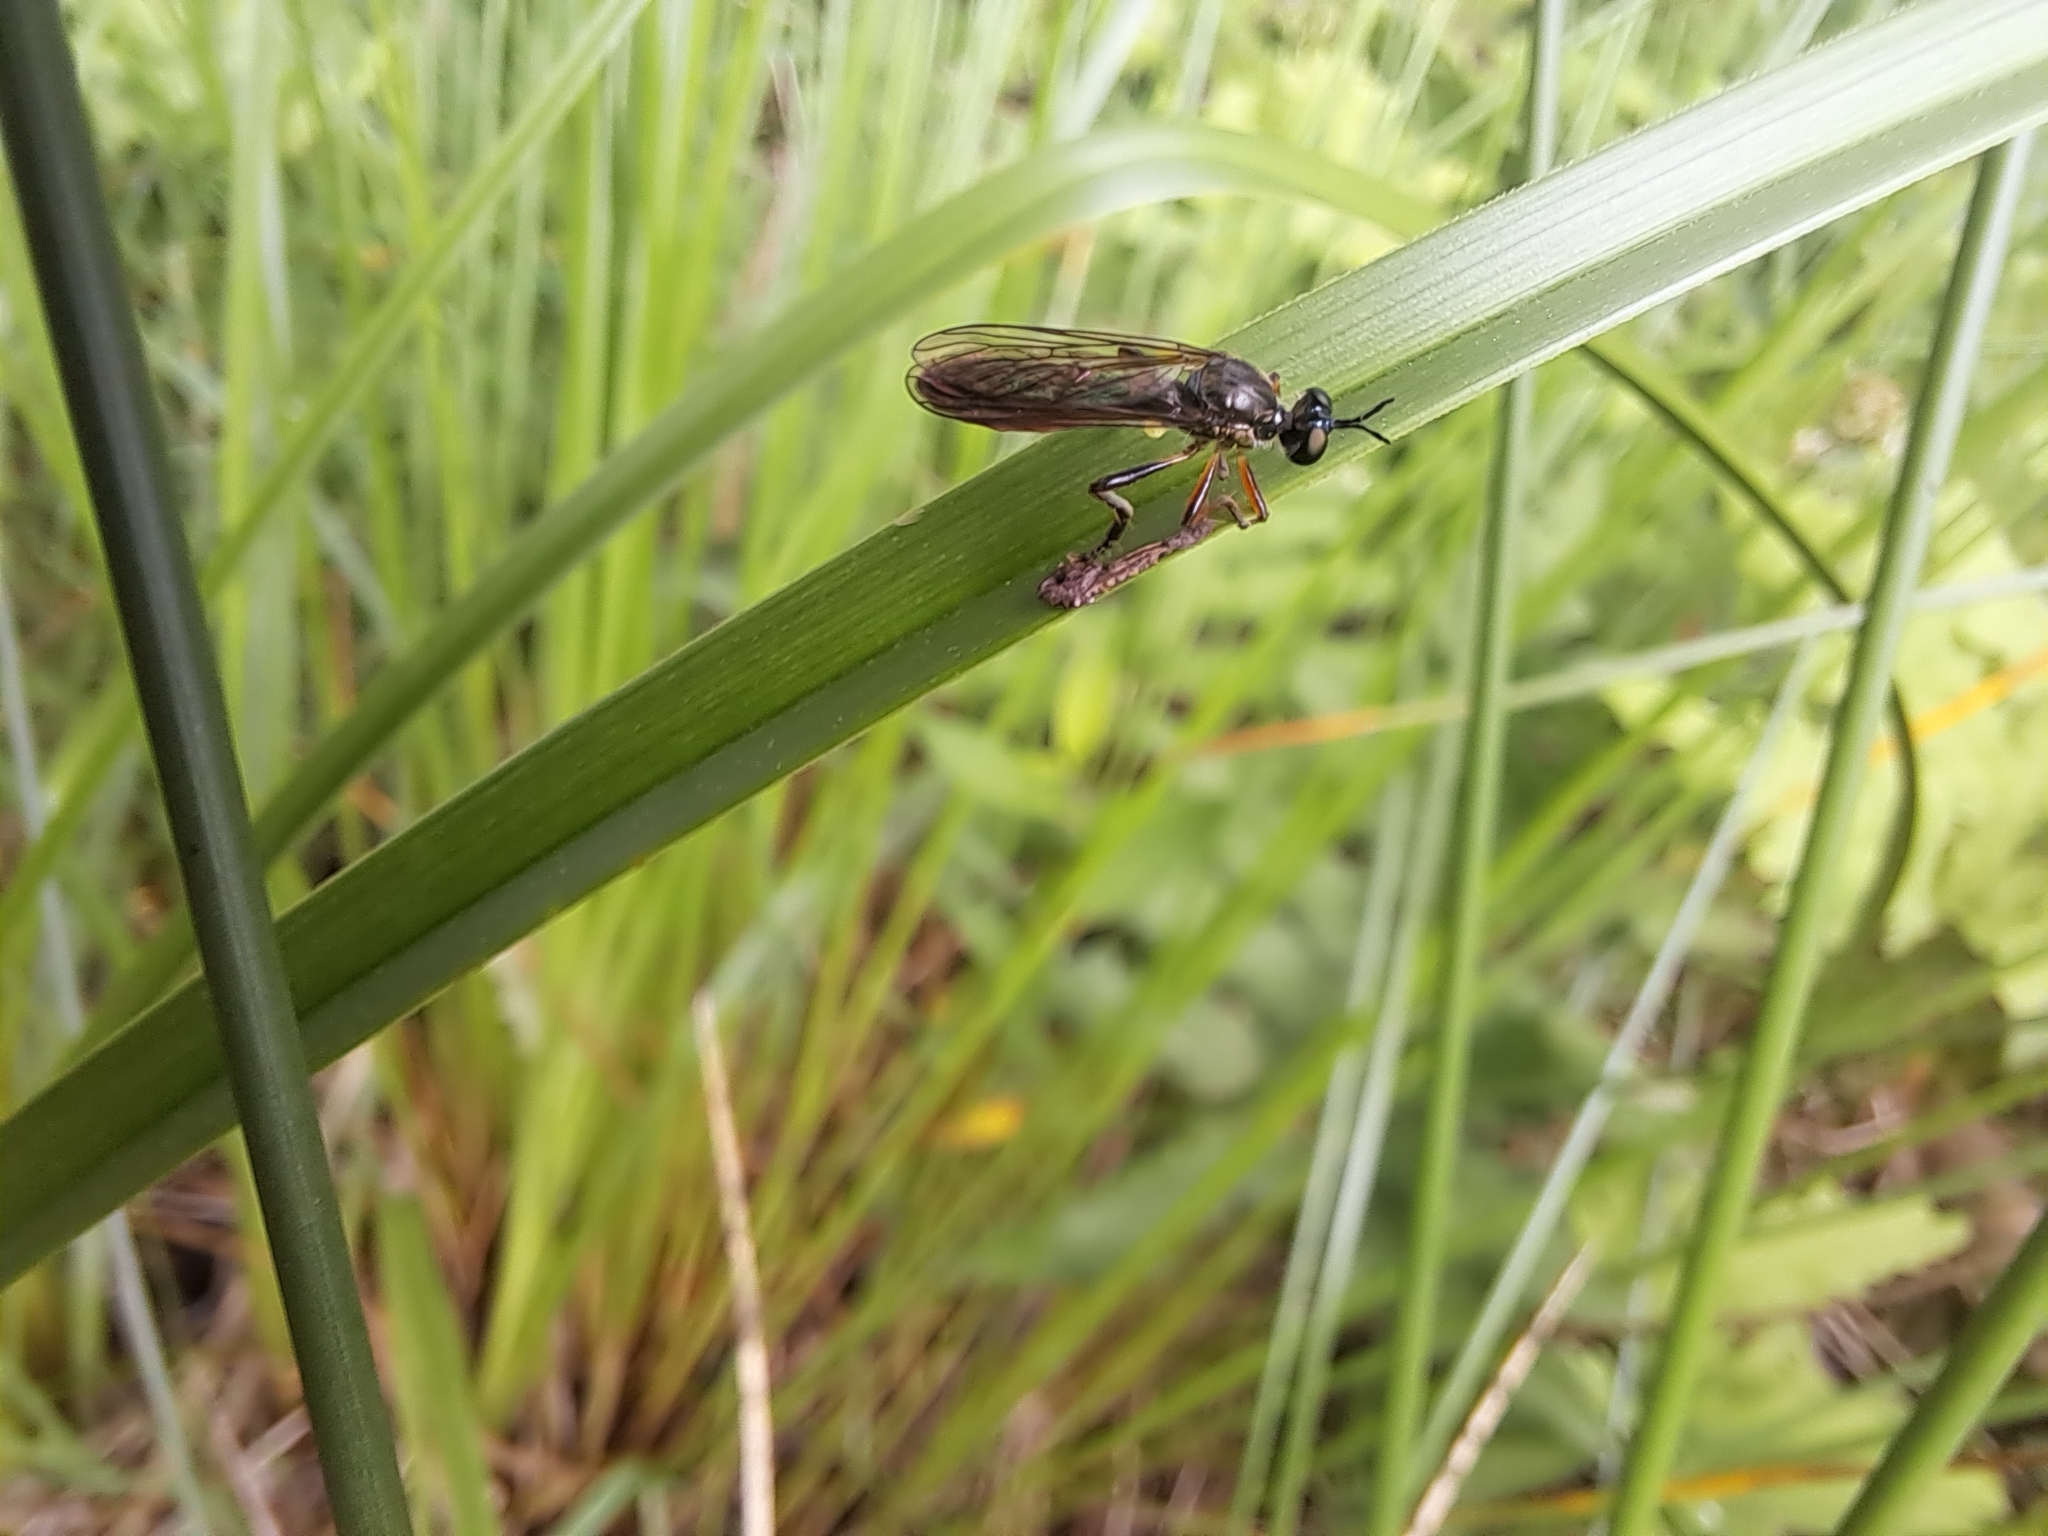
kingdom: Animalia
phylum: Arthropoda
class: Insecta
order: Diptera
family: Asilidae
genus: Dioctria
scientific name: Dioctria hyalipennis
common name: Stripe-legged robberfly
